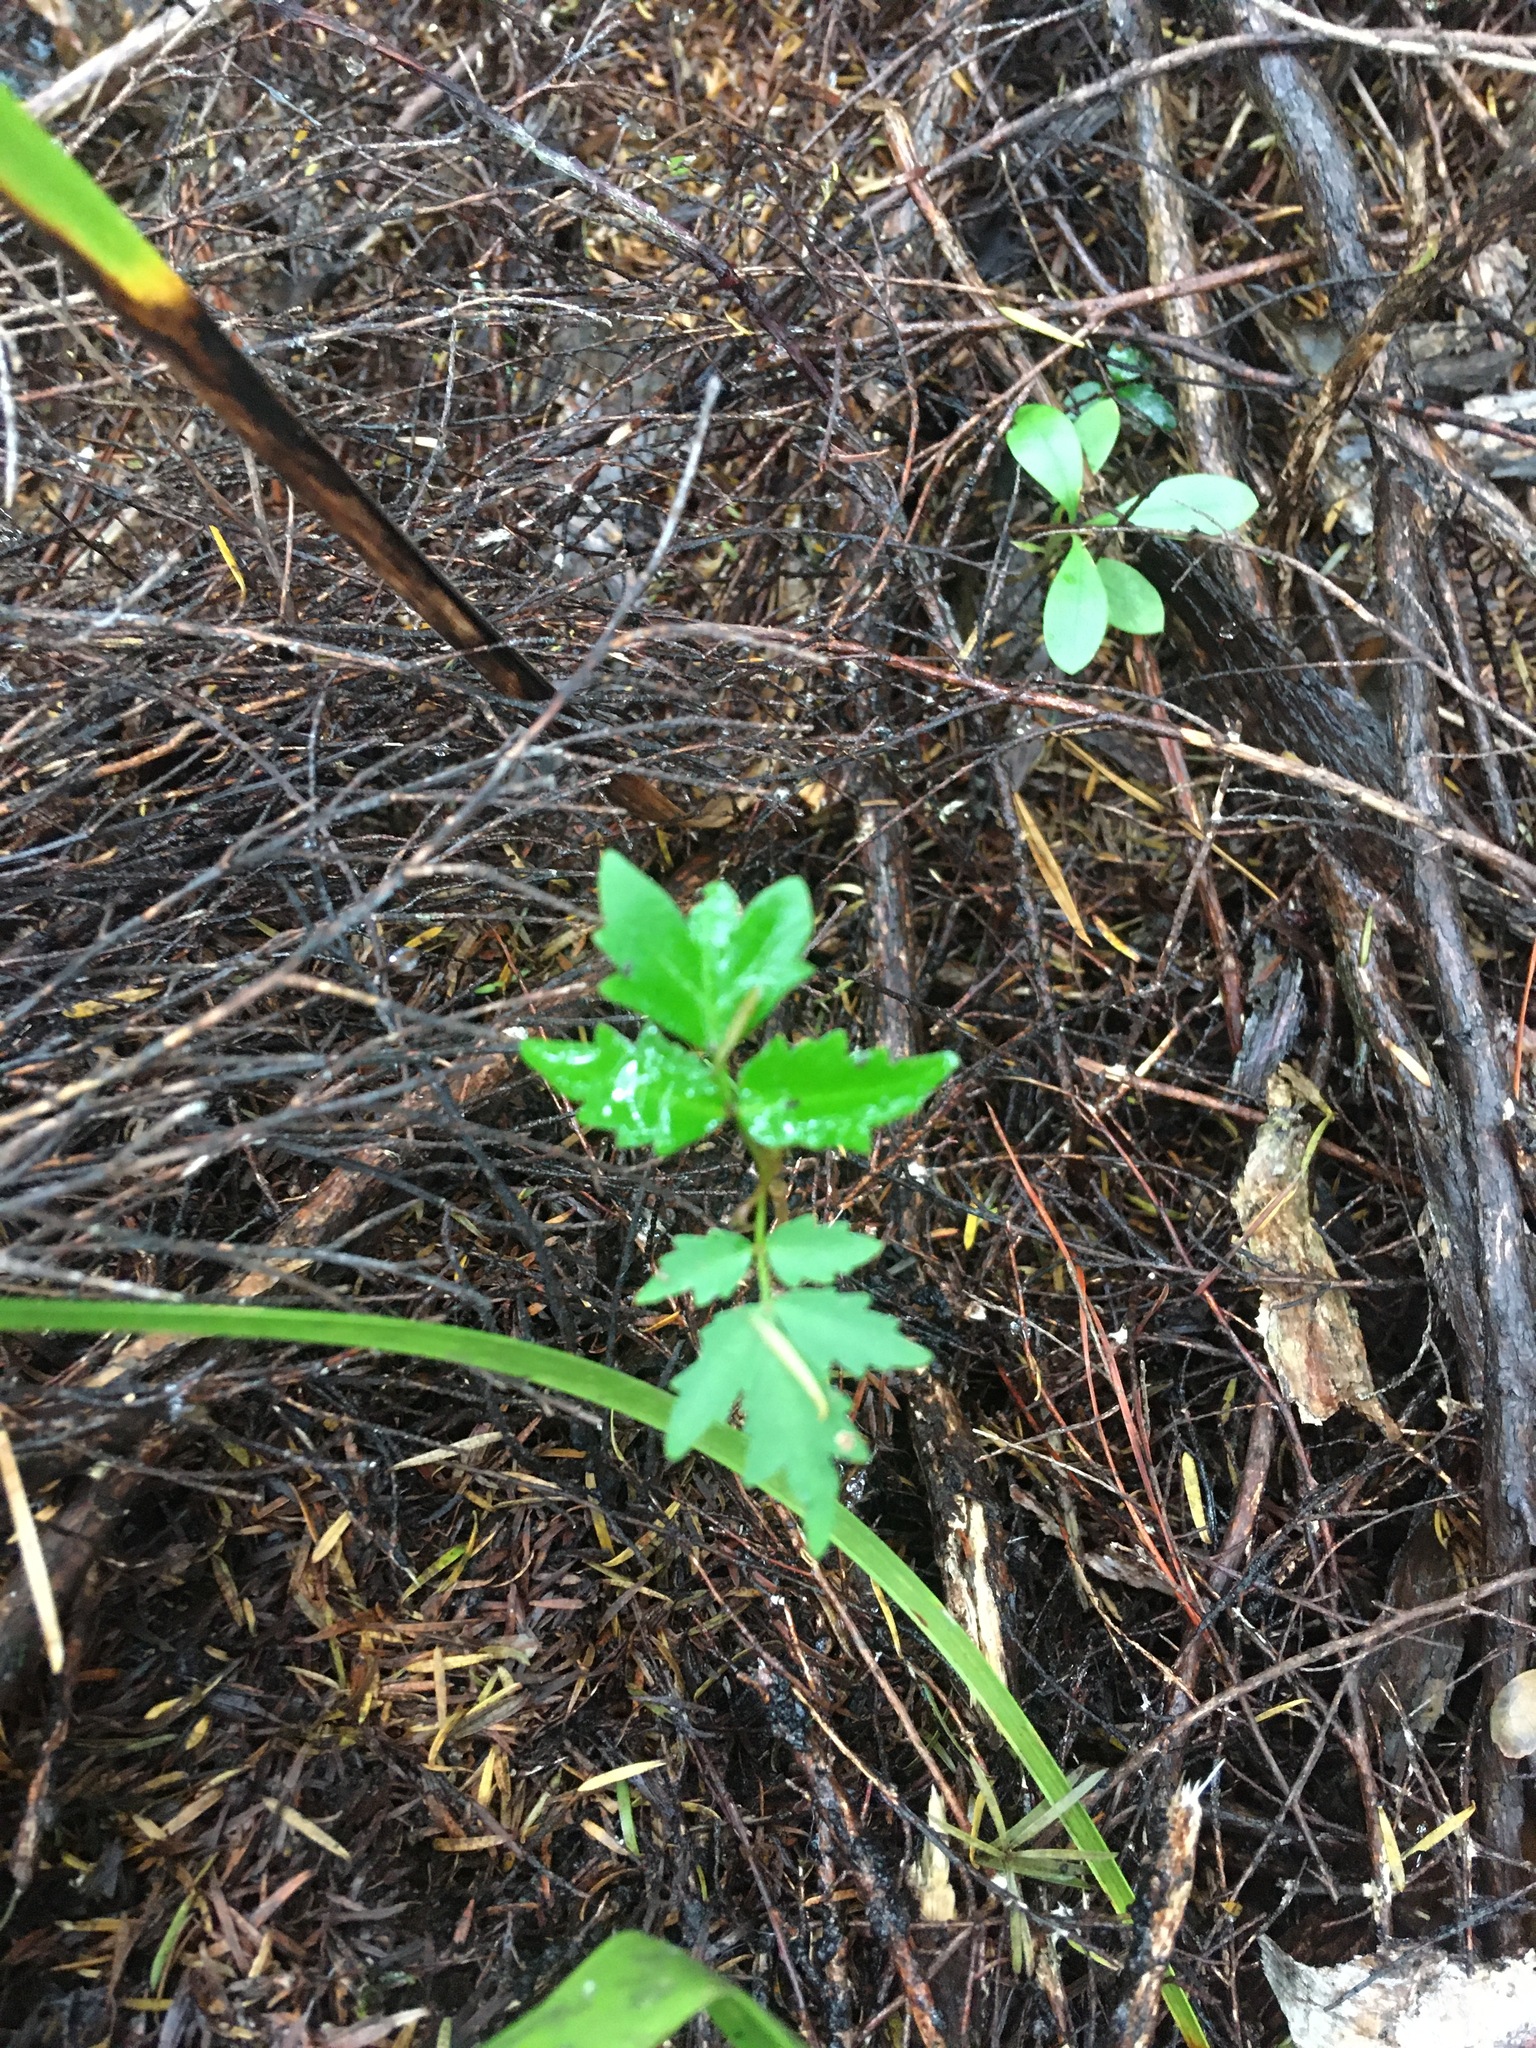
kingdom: Plantae
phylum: Tracheophyta
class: Magnoliopsida
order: Sapindales
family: Simaroubaceae
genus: Ailanthus
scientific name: Ailanthus altissima
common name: Tree-of-heaven
